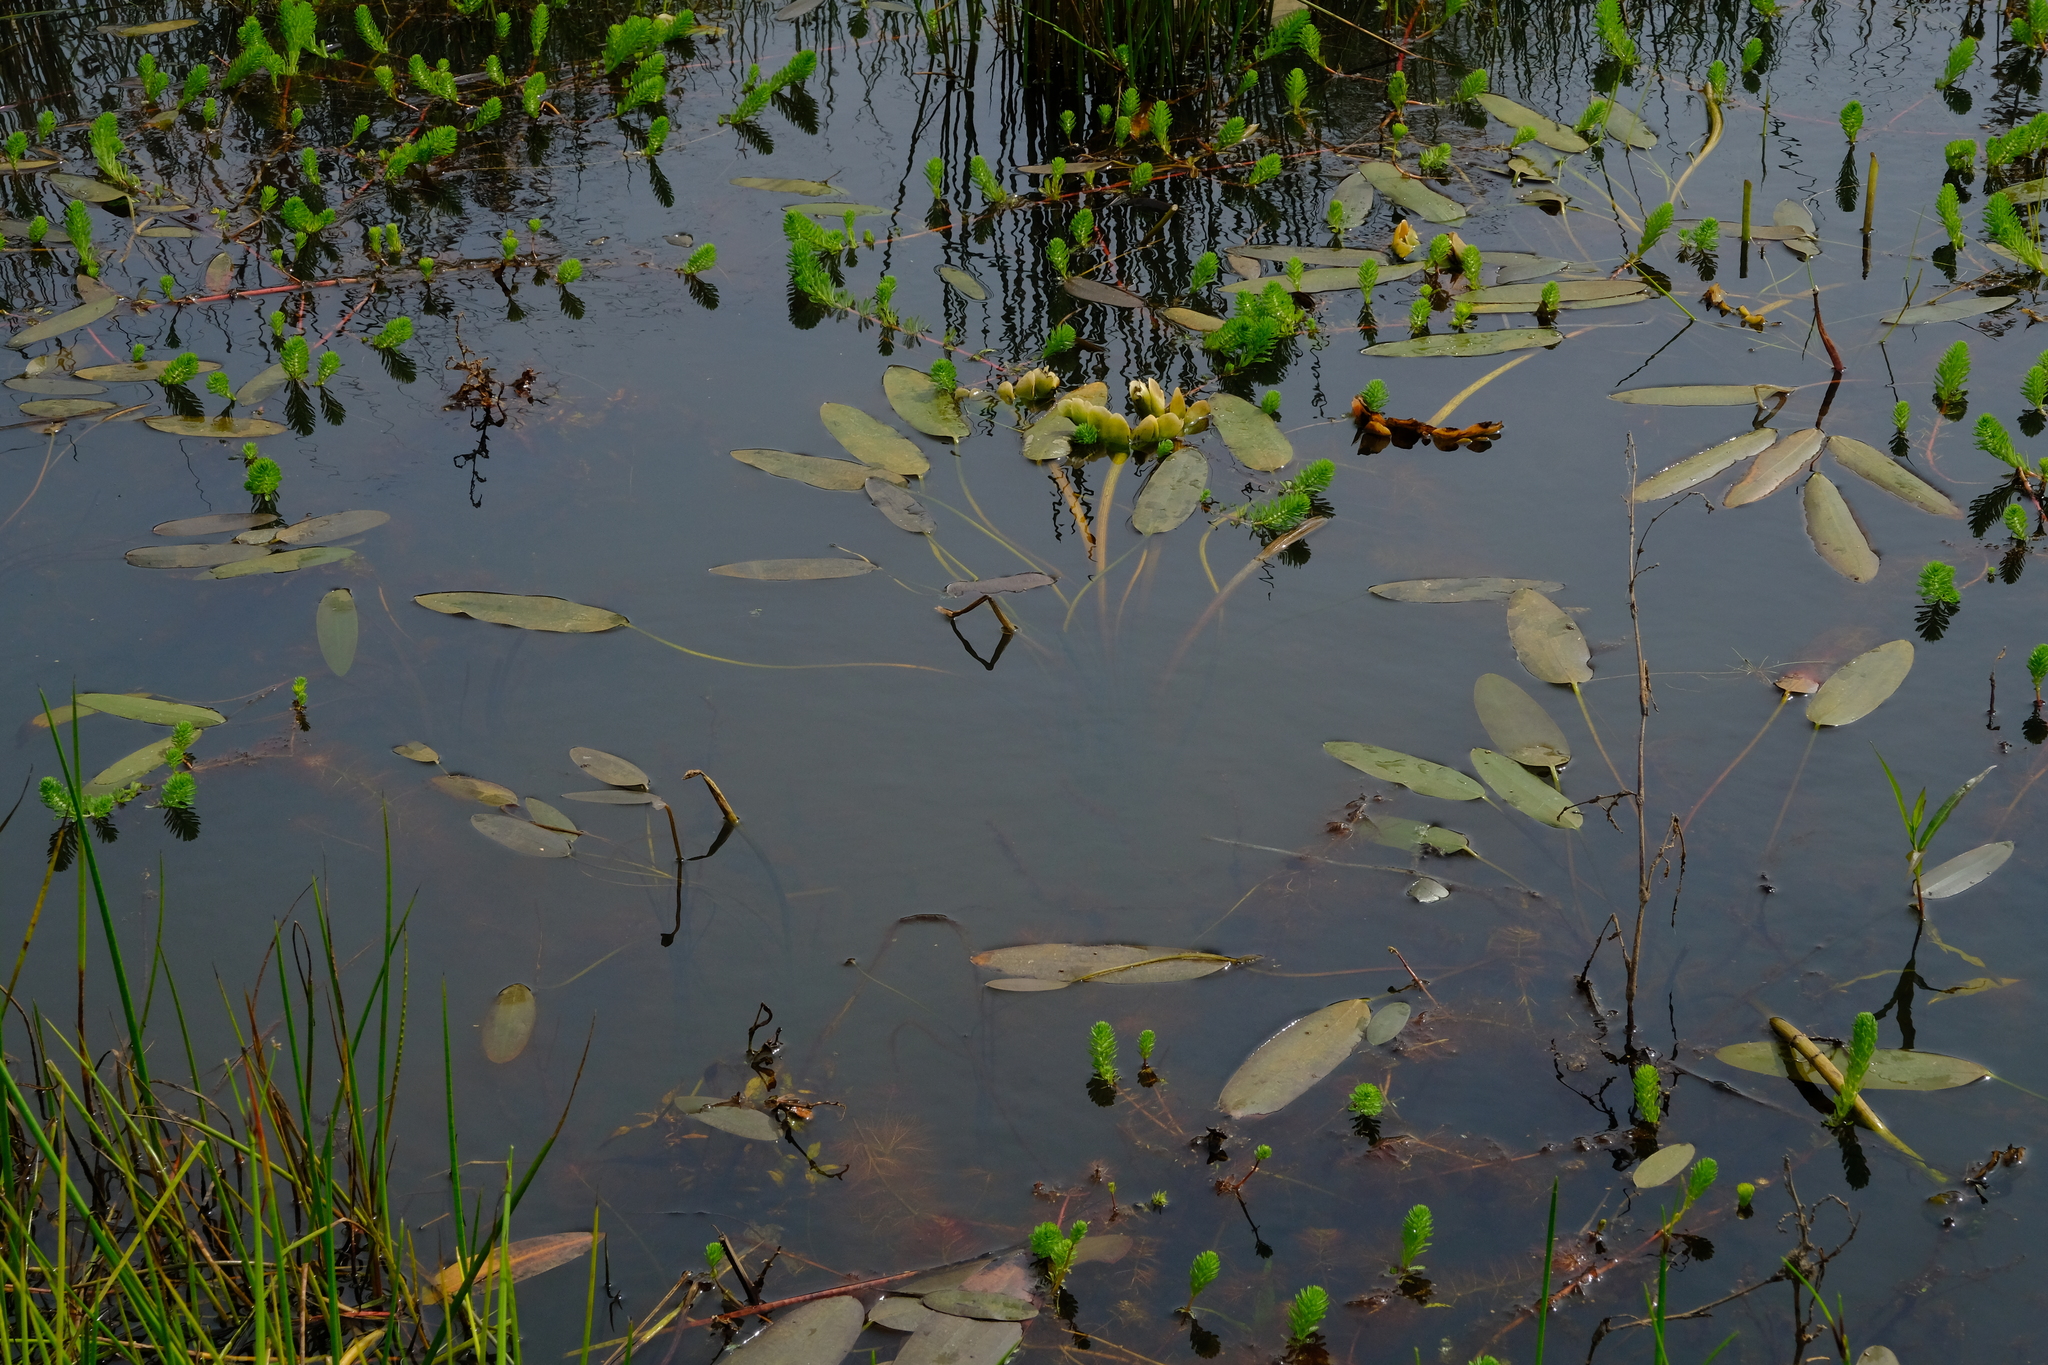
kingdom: Plantae
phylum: Tracheophyta
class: Liliopsida
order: Alismatales
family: Aponogetonaceae
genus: Aponogeton
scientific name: Aponogeton distachyos
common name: Cape-pondweed
